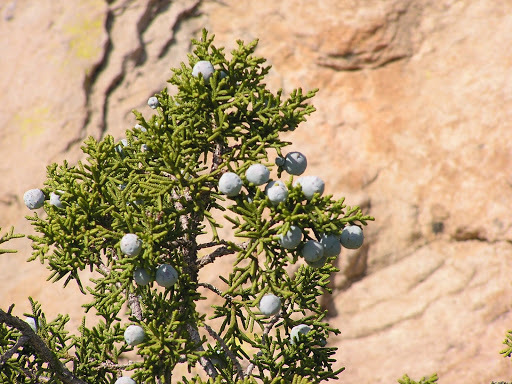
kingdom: Plantae
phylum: Tracheophyta
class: Pinopsida
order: Pinales
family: Cupressaceae
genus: Juniperus
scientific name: Juniperus californica
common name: California juniper
